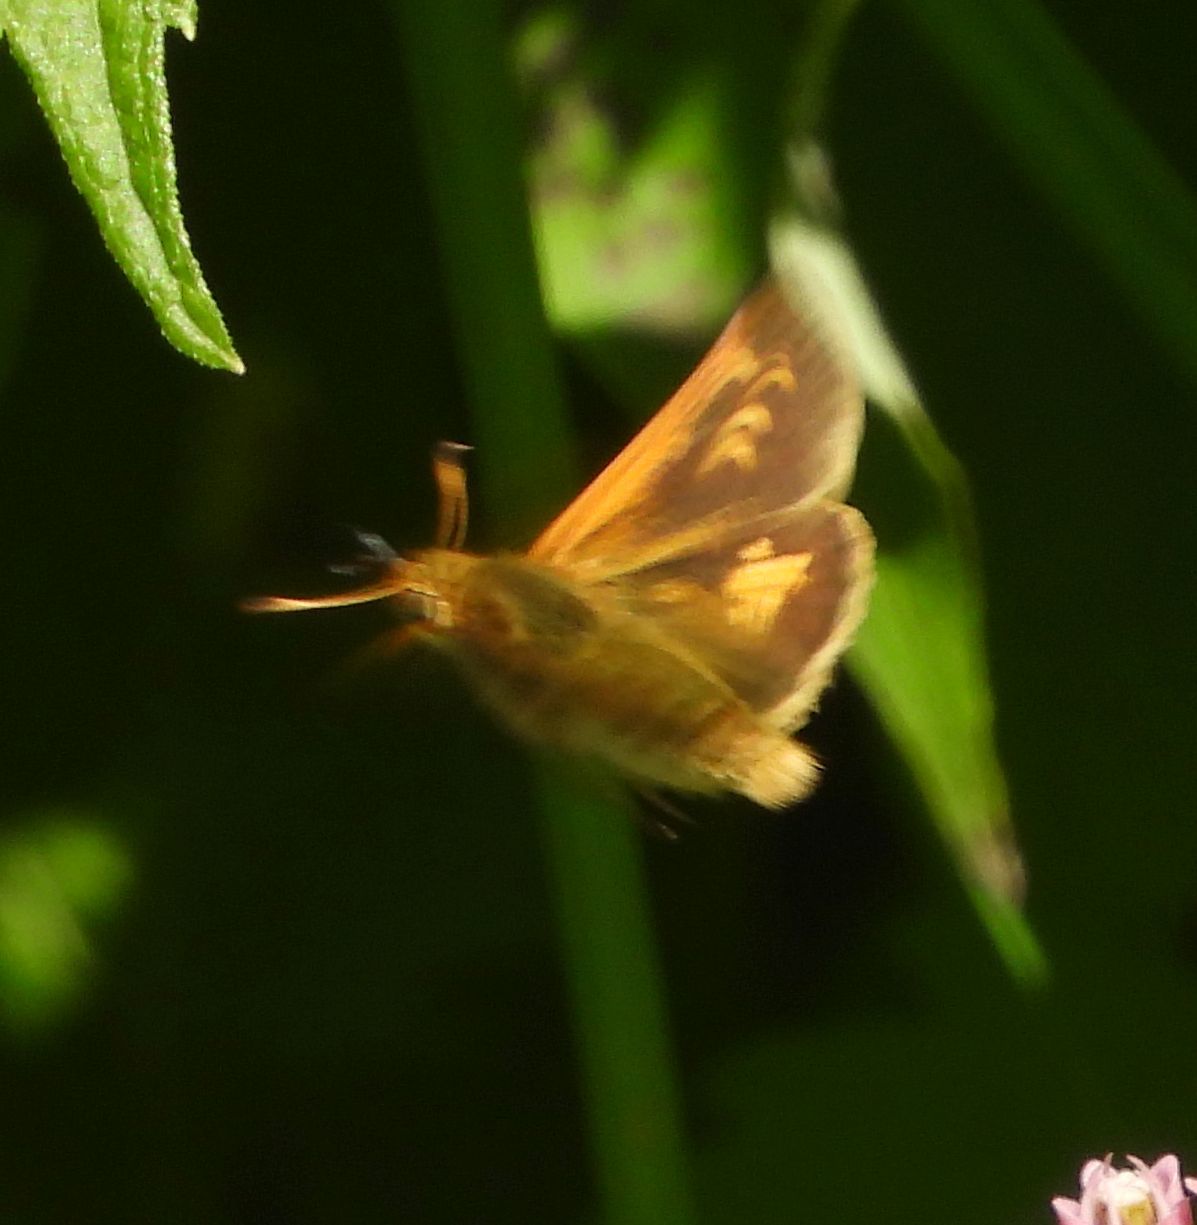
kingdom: Animalia
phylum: Arthropoda
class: Insecta
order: Lepidoptera
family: Hesperiidae
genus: Polites
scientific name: Polites coras
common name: Peck's skipper
